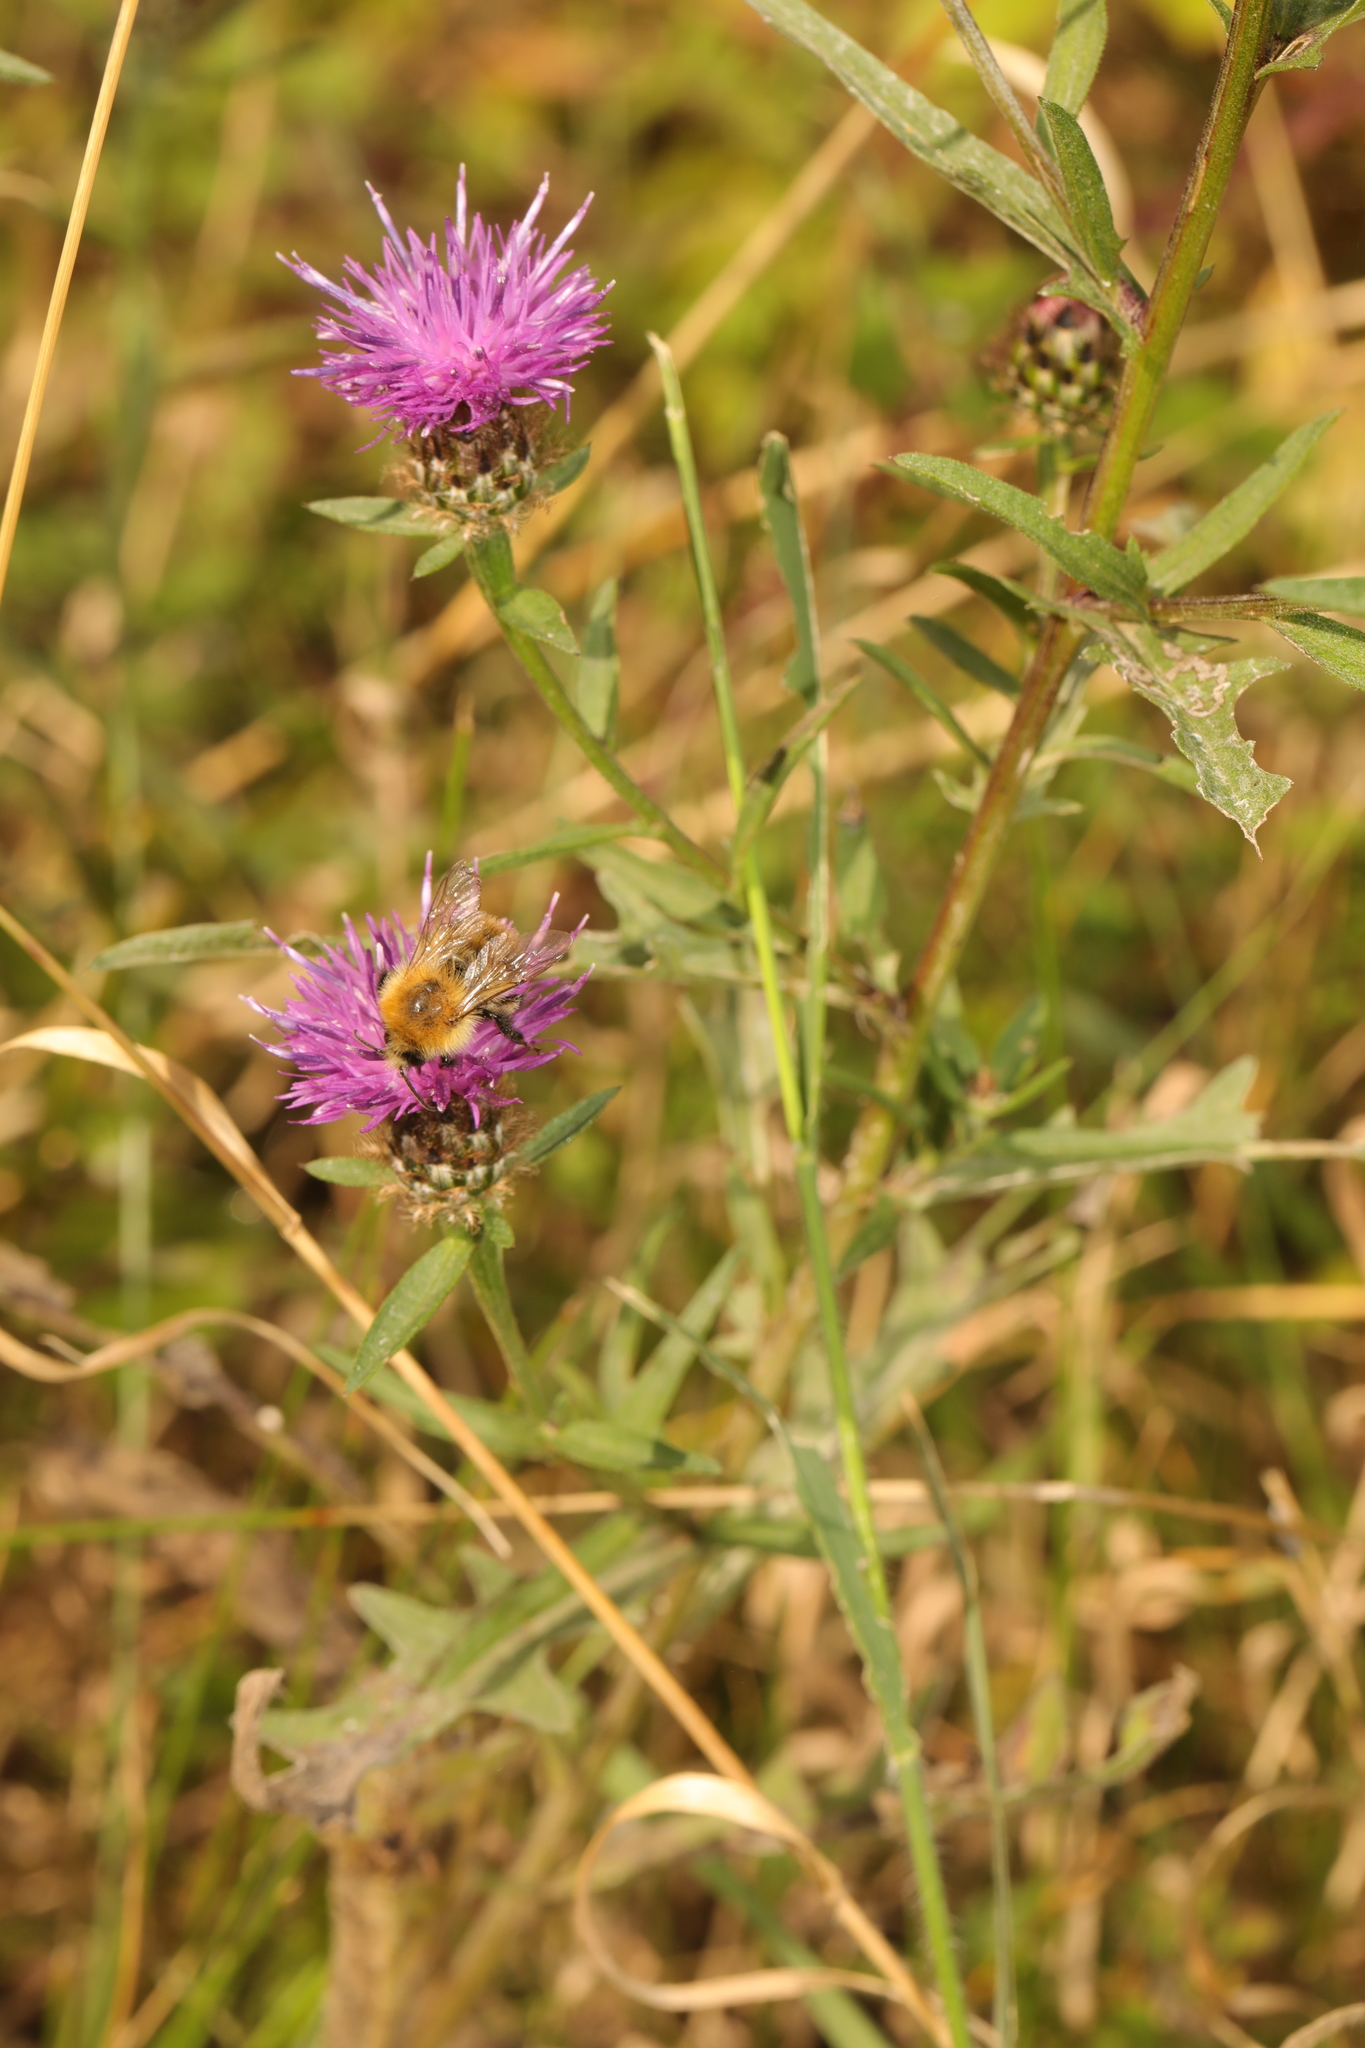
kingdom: Plantae
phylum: Tracheophyta
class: Magnoliopsida
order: Asterales
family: Asteraceae
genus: Centaurea
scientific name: Centaurea nigra
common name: Lesser knapweed
